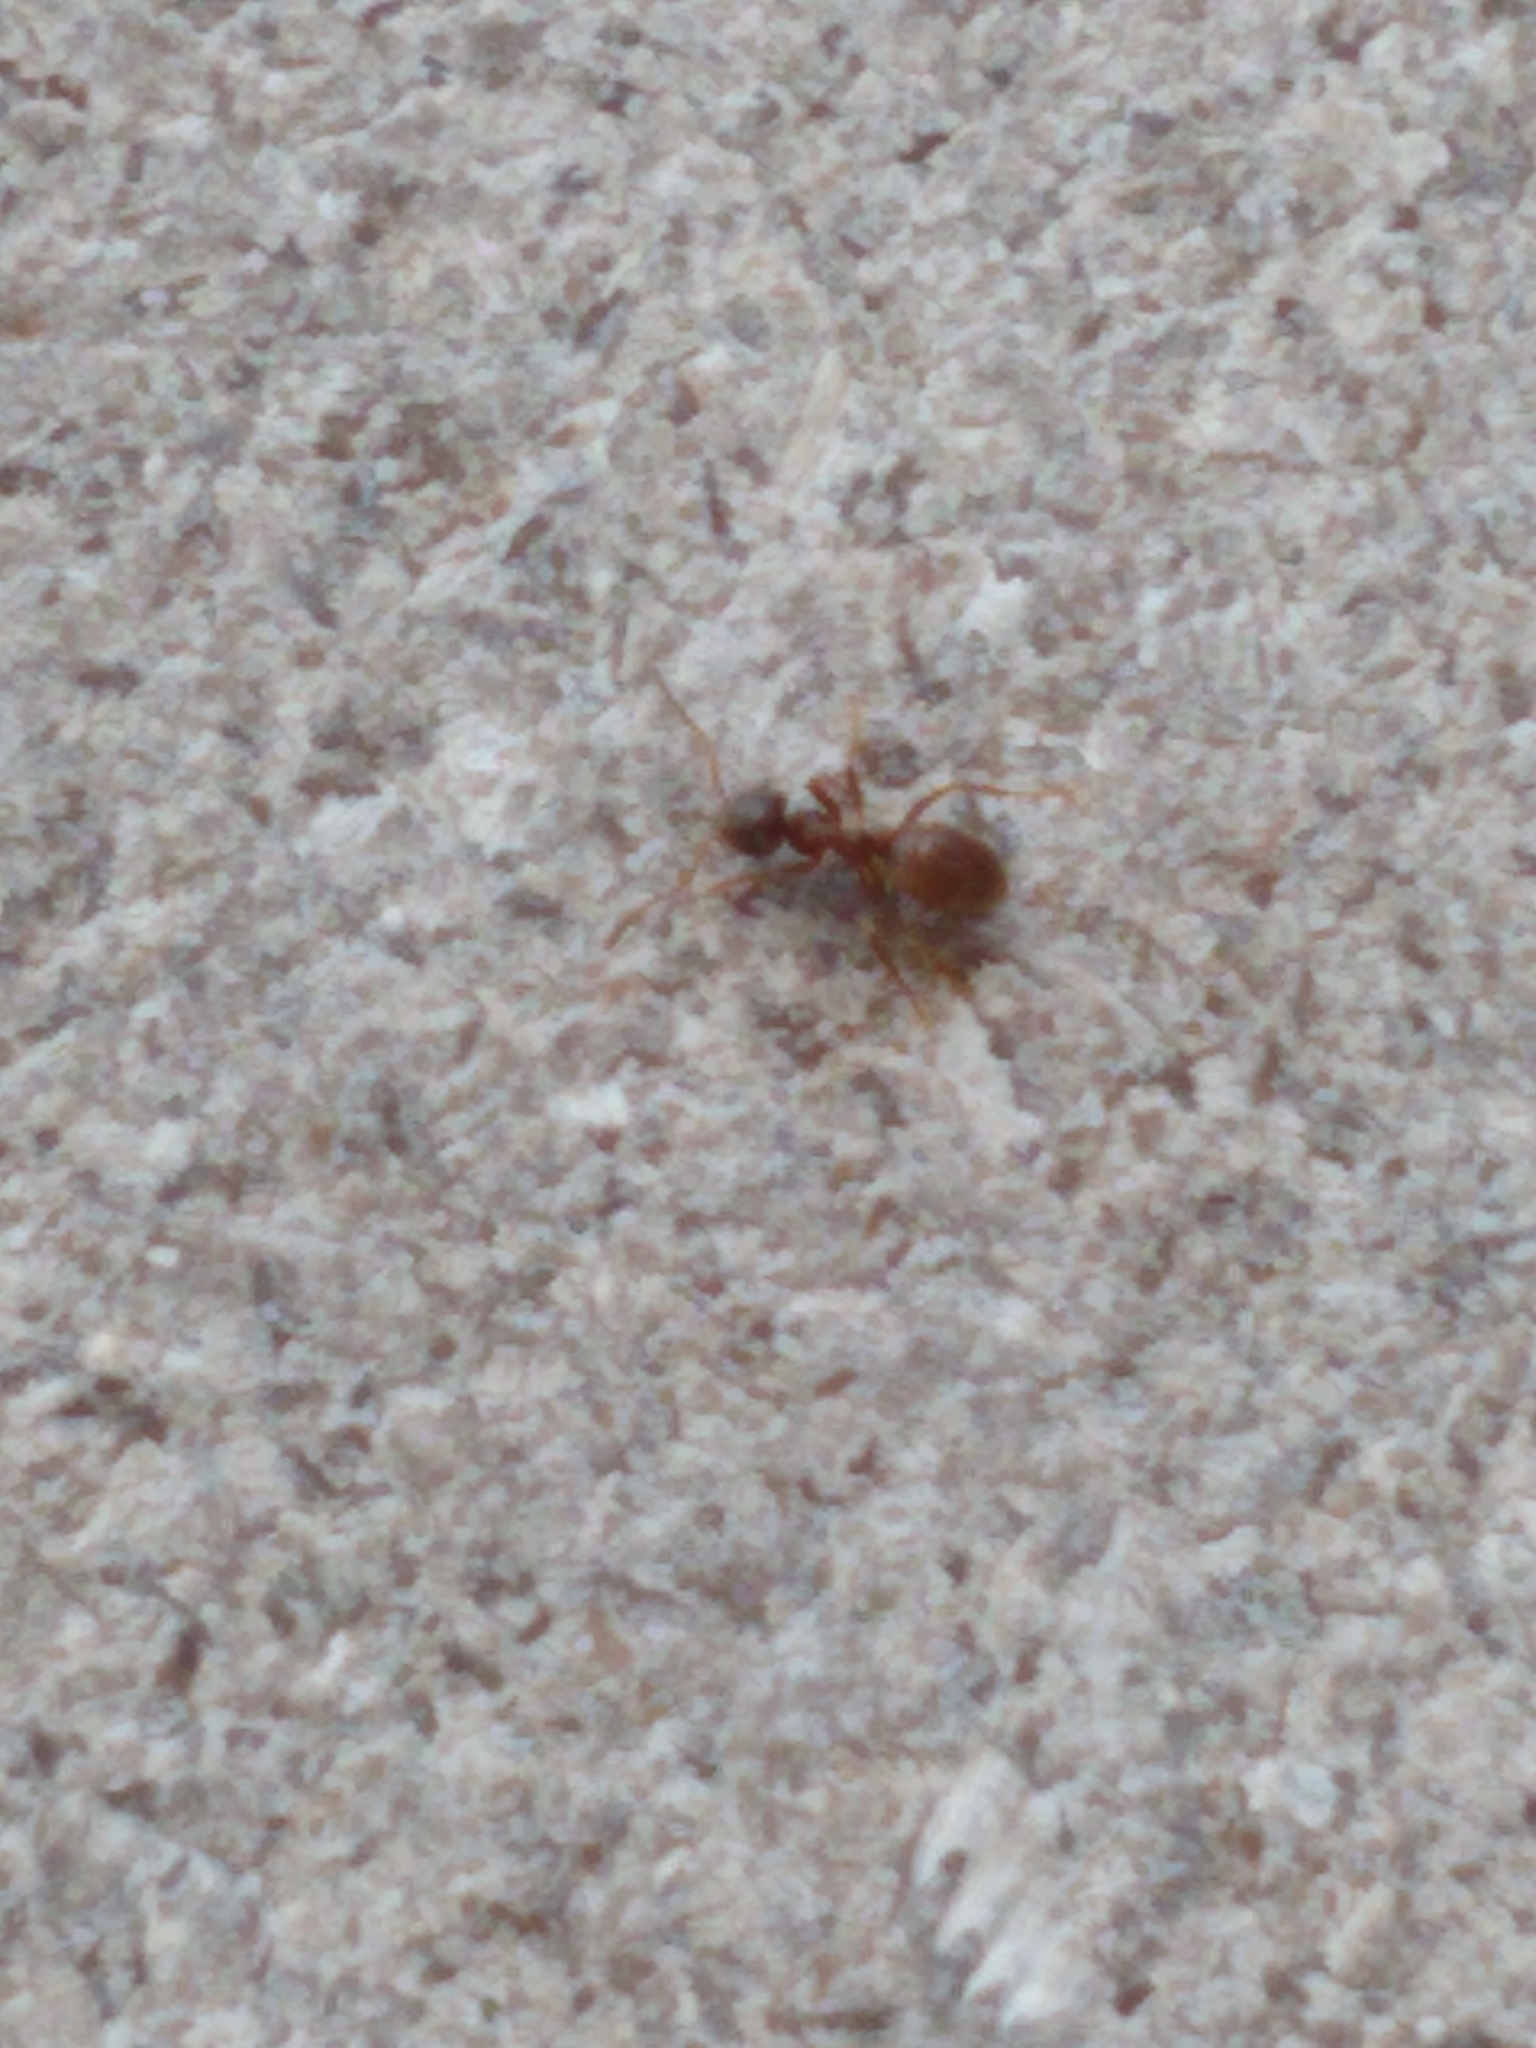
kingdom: Animalia
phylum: Arthropoda
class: Insecta
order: Hymenoptera
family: Formicidae
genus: Lasius
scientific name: Lasius neoniger
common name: Turfgrass ant
